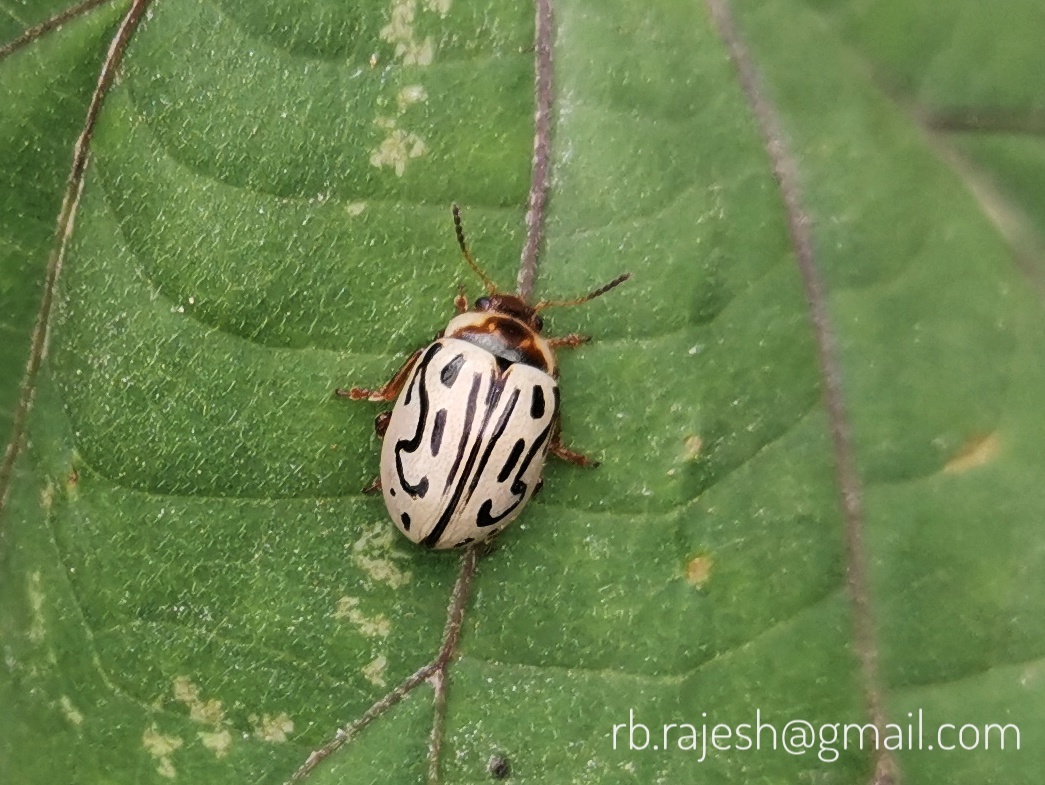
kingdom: Animalia
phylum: Arthropoda
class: Insecta
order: Coleoptera
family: Chrysomelidae
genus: Calligrapha
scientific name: Calligrapha
